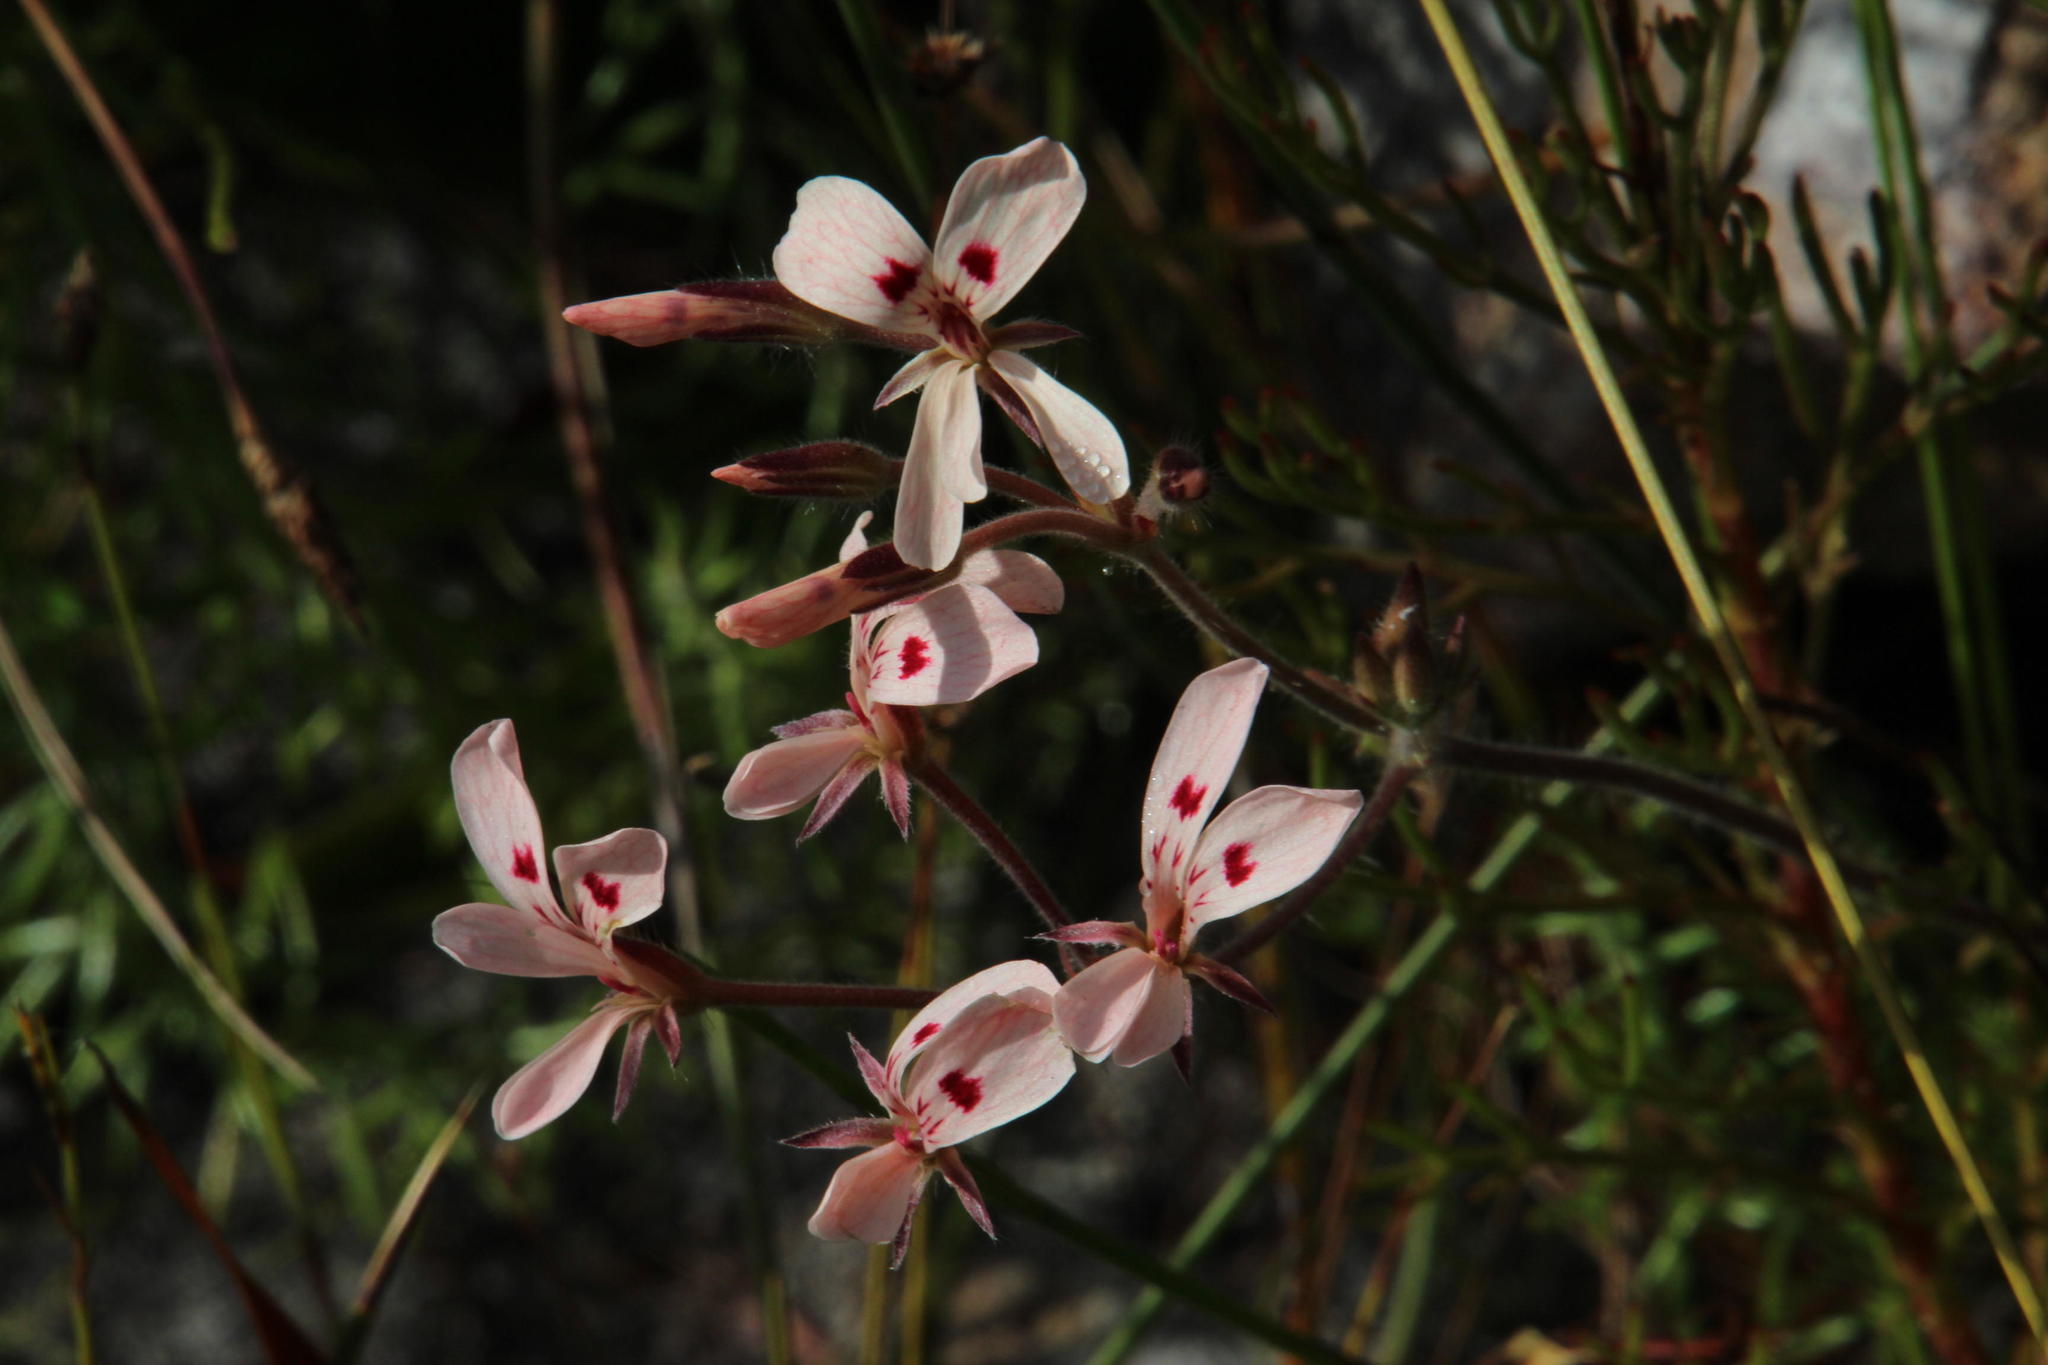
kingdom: Plantae
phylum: Tracheophyta
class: Magnoliopsida
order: Geraniales
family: Geraniaceae
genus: Pelargonium
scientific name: Pelargonium pinnatum
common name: Pinnated pelargonium
